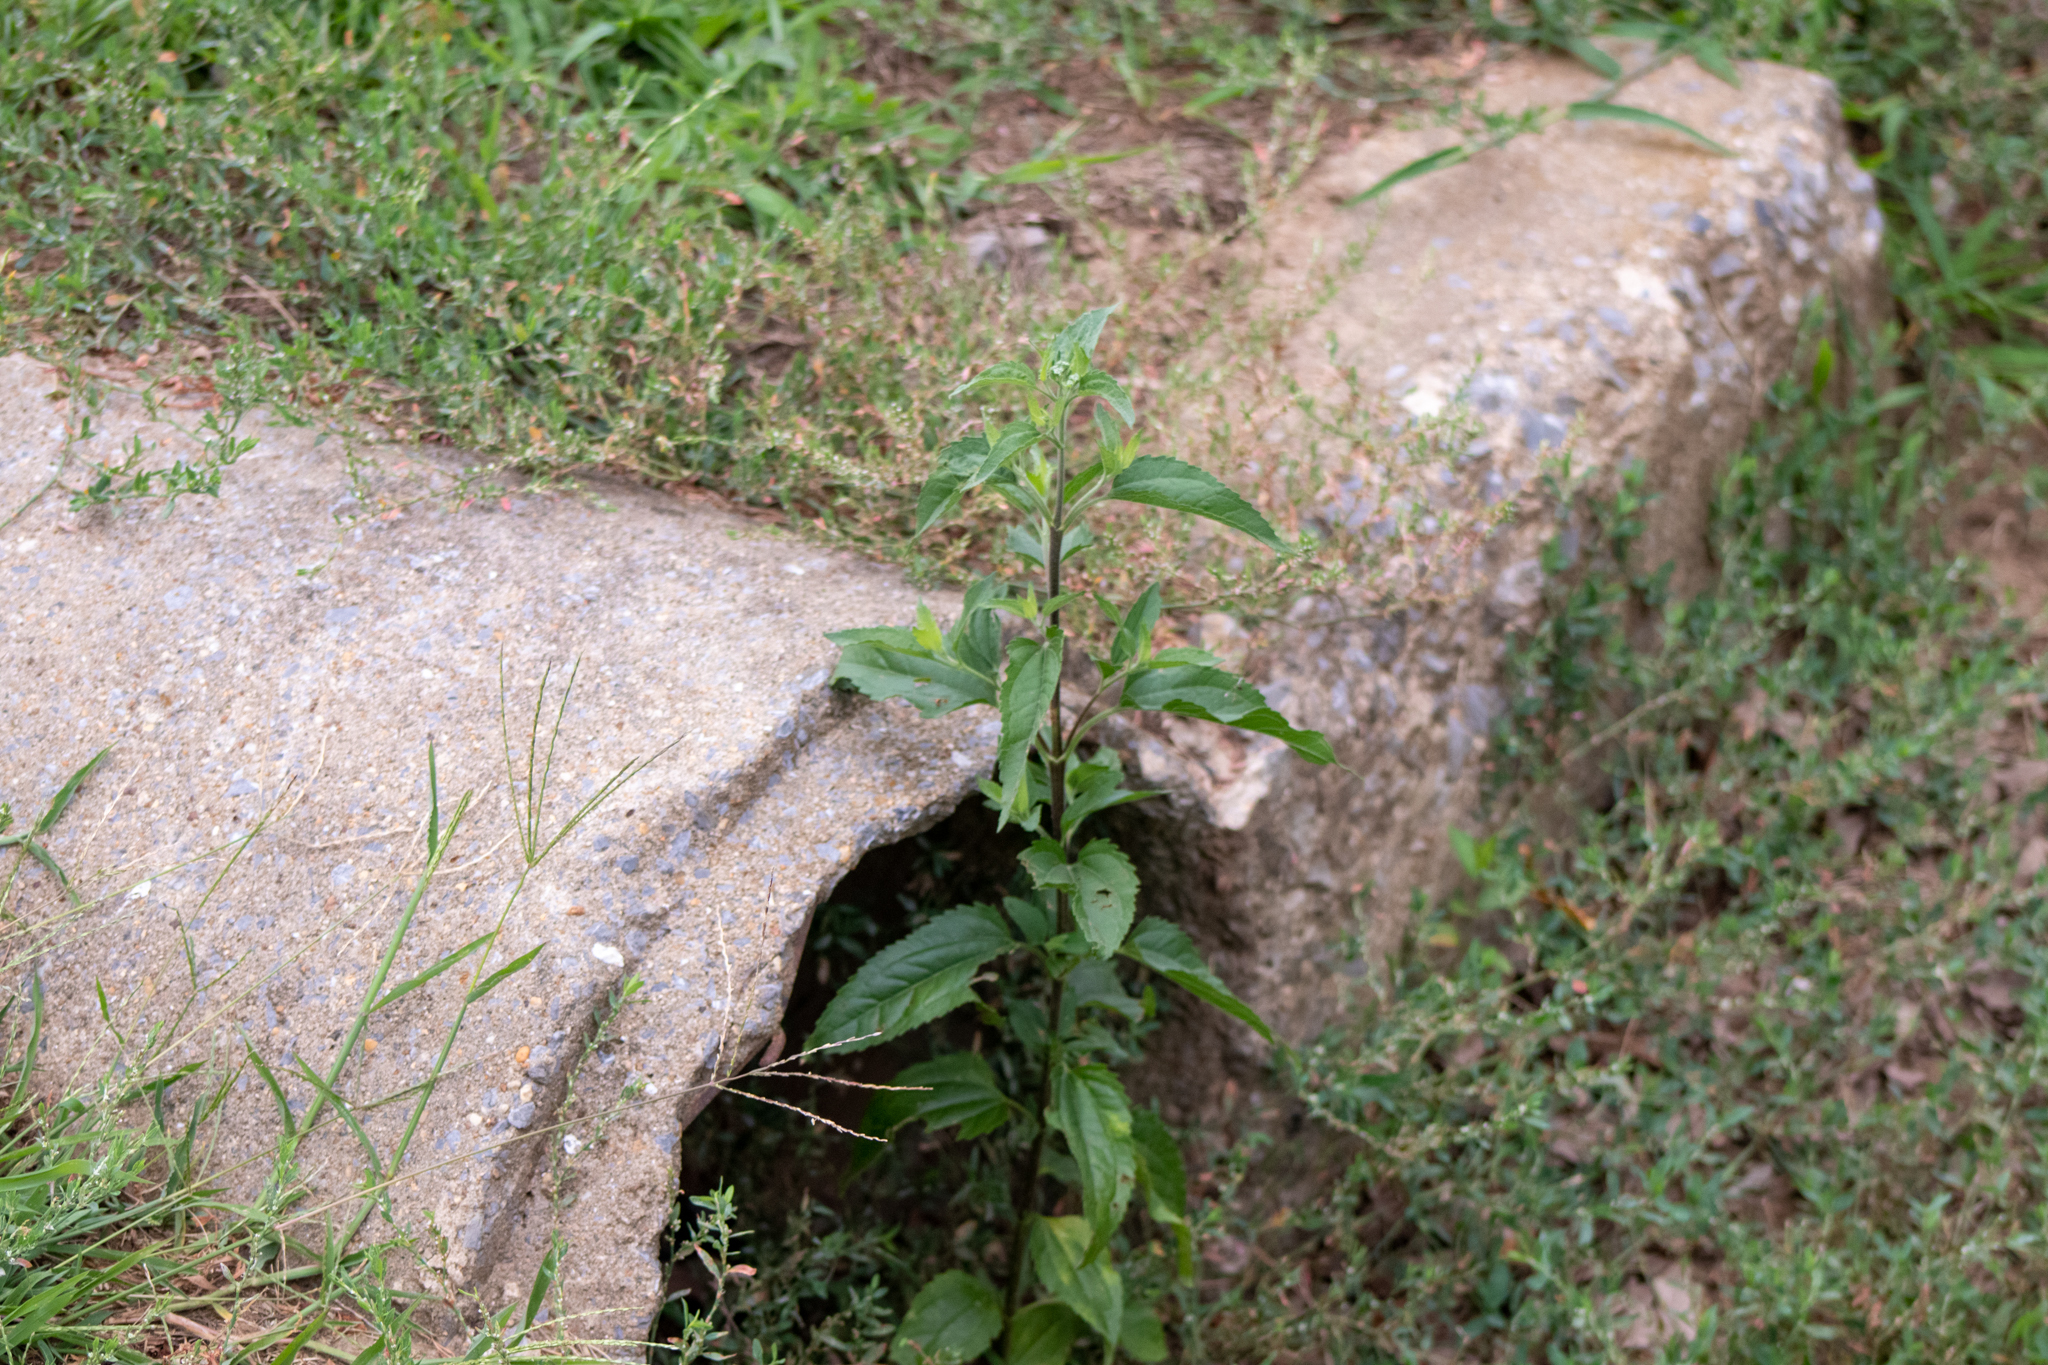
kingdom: Plantae
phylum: Tracheophyta
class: Magnoliopsida
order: Asterales
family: Asteraceae
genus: Eupatorium
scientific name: Eupatorium serotinum
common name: Late boneset
